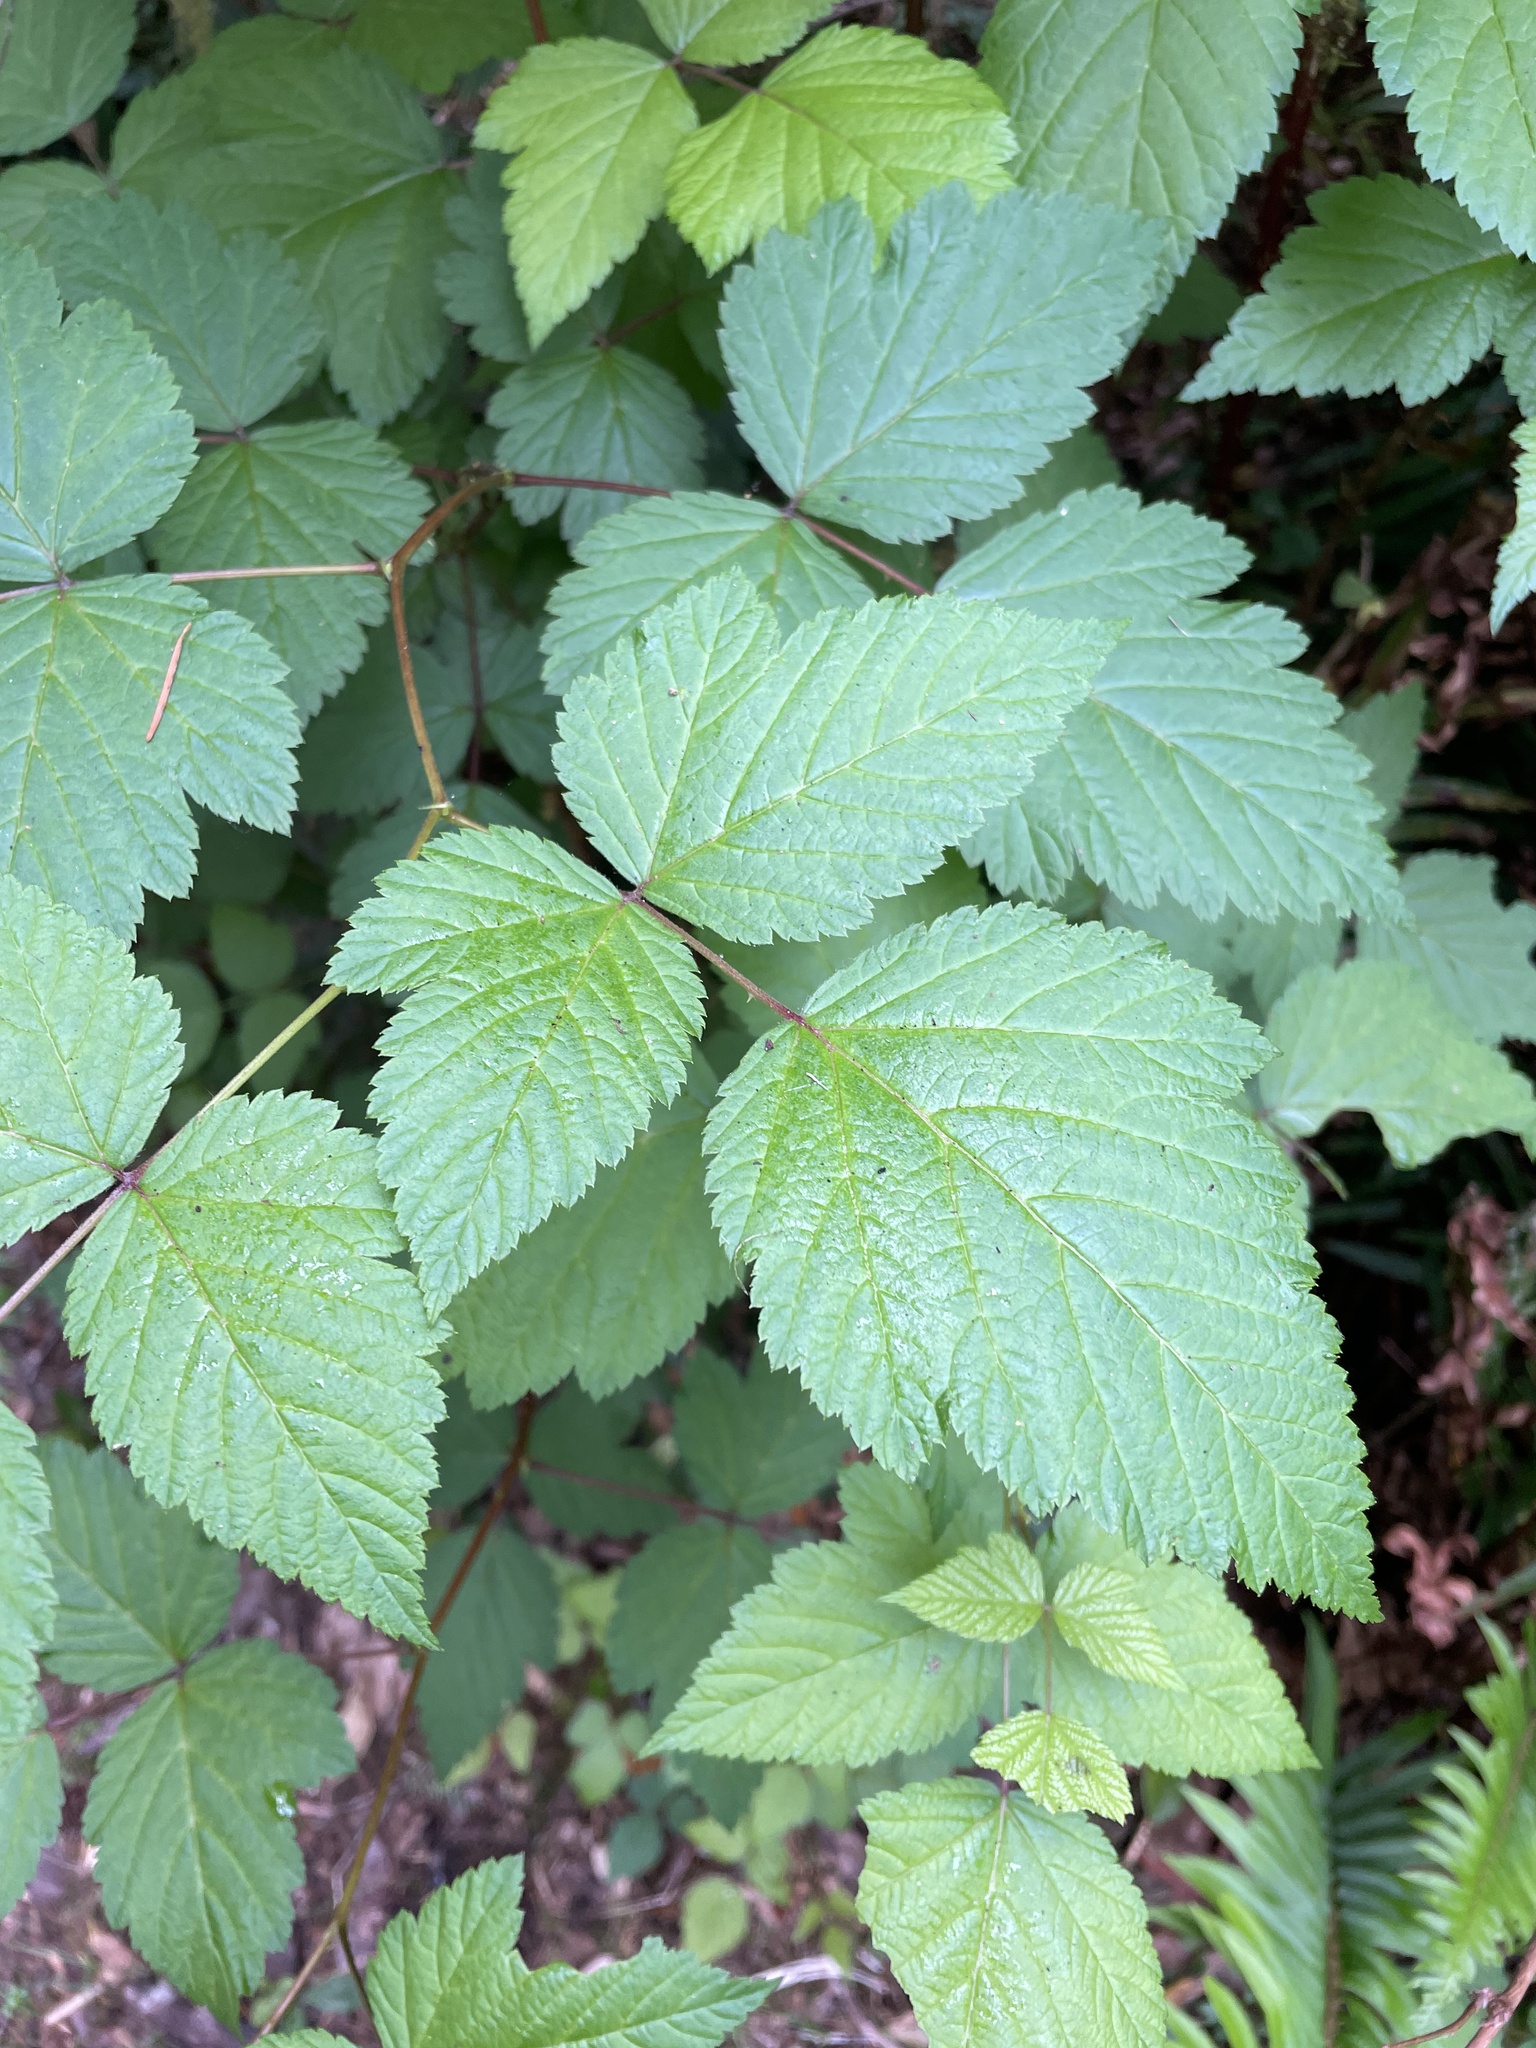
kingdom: Plantae
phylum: Tracheophyta
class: Magnoliopsida
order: Rosales
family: Rosaceae
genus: Rubus
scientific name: Rubus spectabilis
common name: Salmonberry
